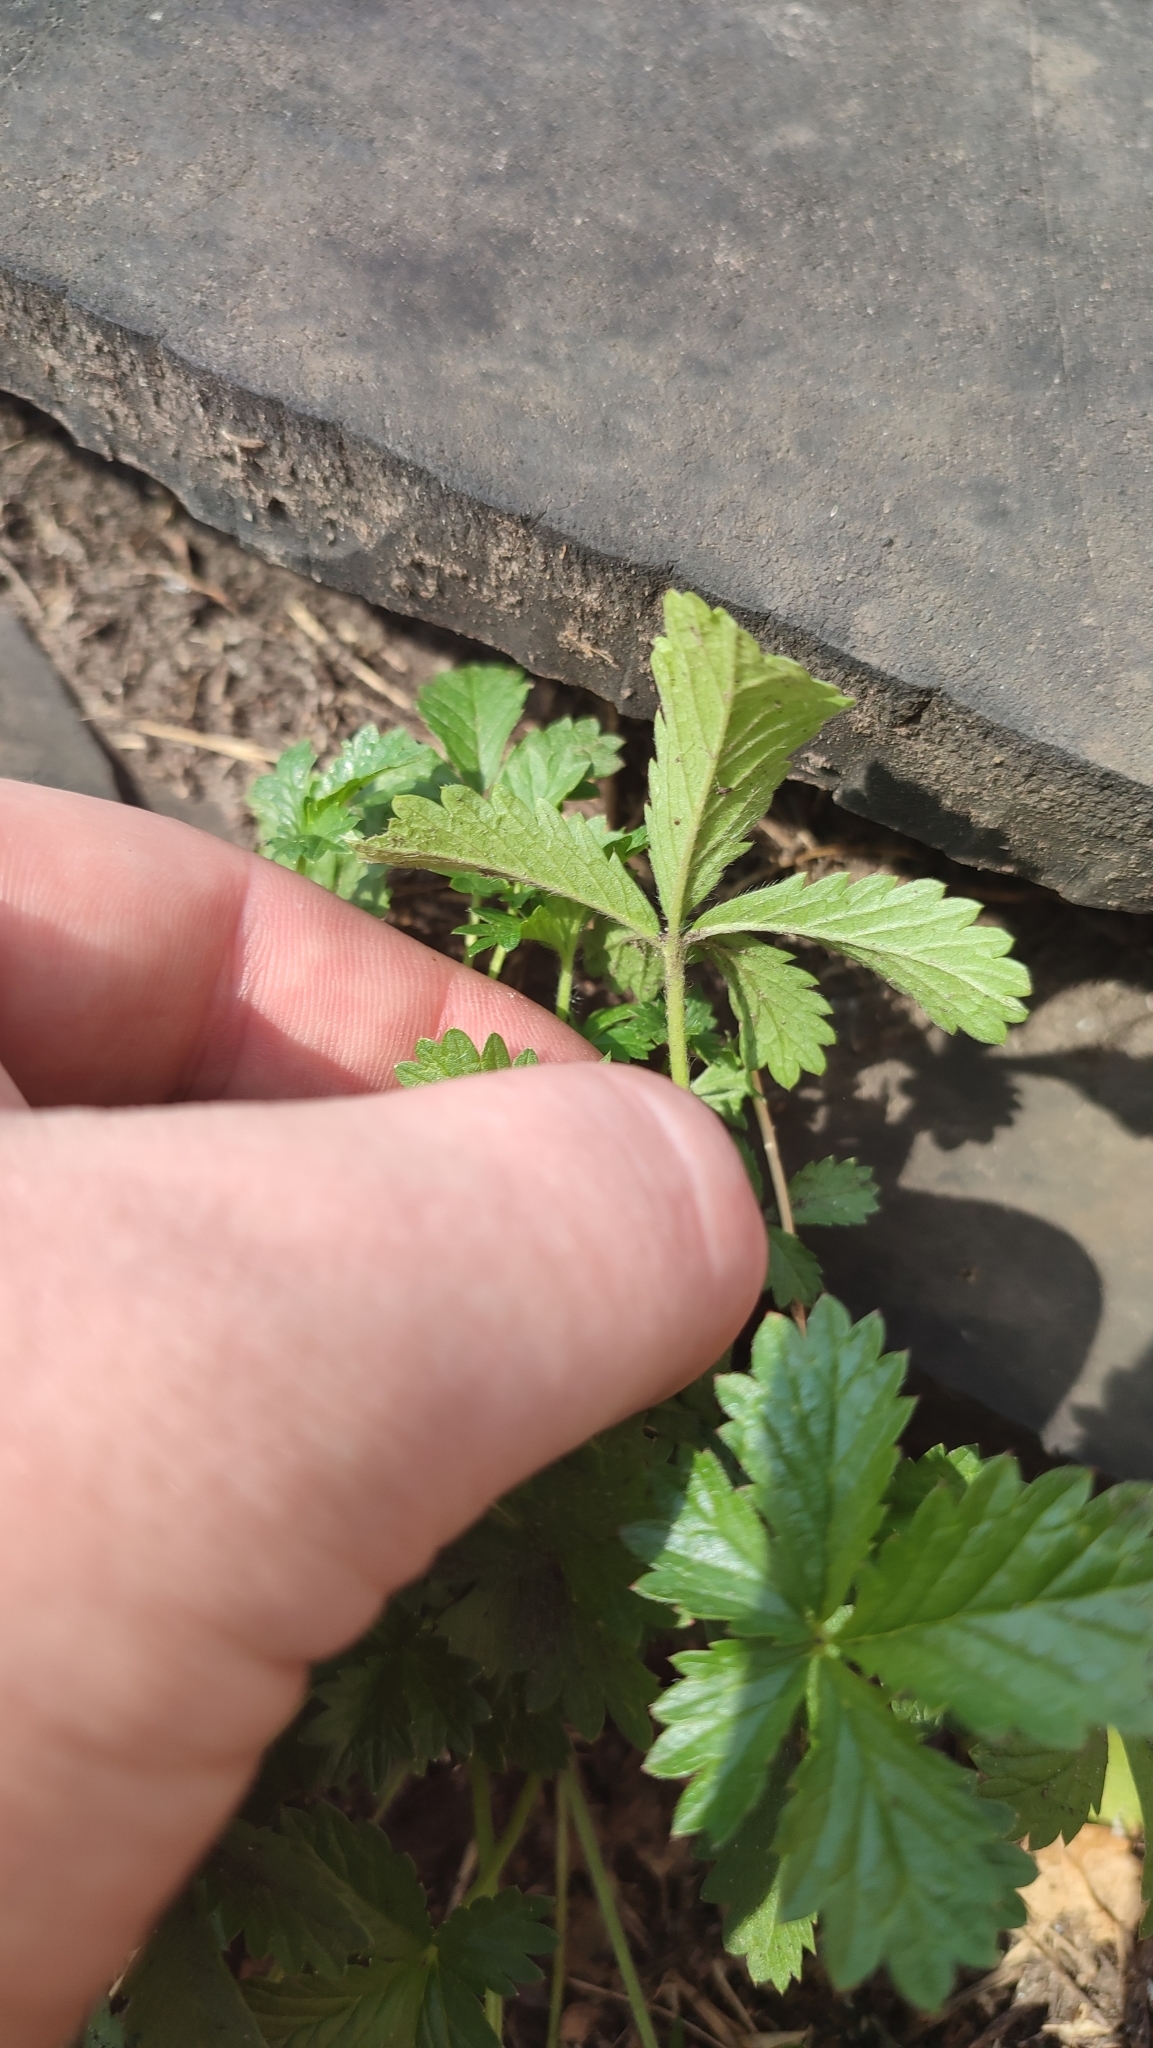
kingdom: Plantae
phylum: Tracheophyta
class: Magnoliopsida
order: Rosales
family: Rosaceae
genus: Potentilla
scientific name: Potentilla intermedia
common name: Downy cinquefoil
